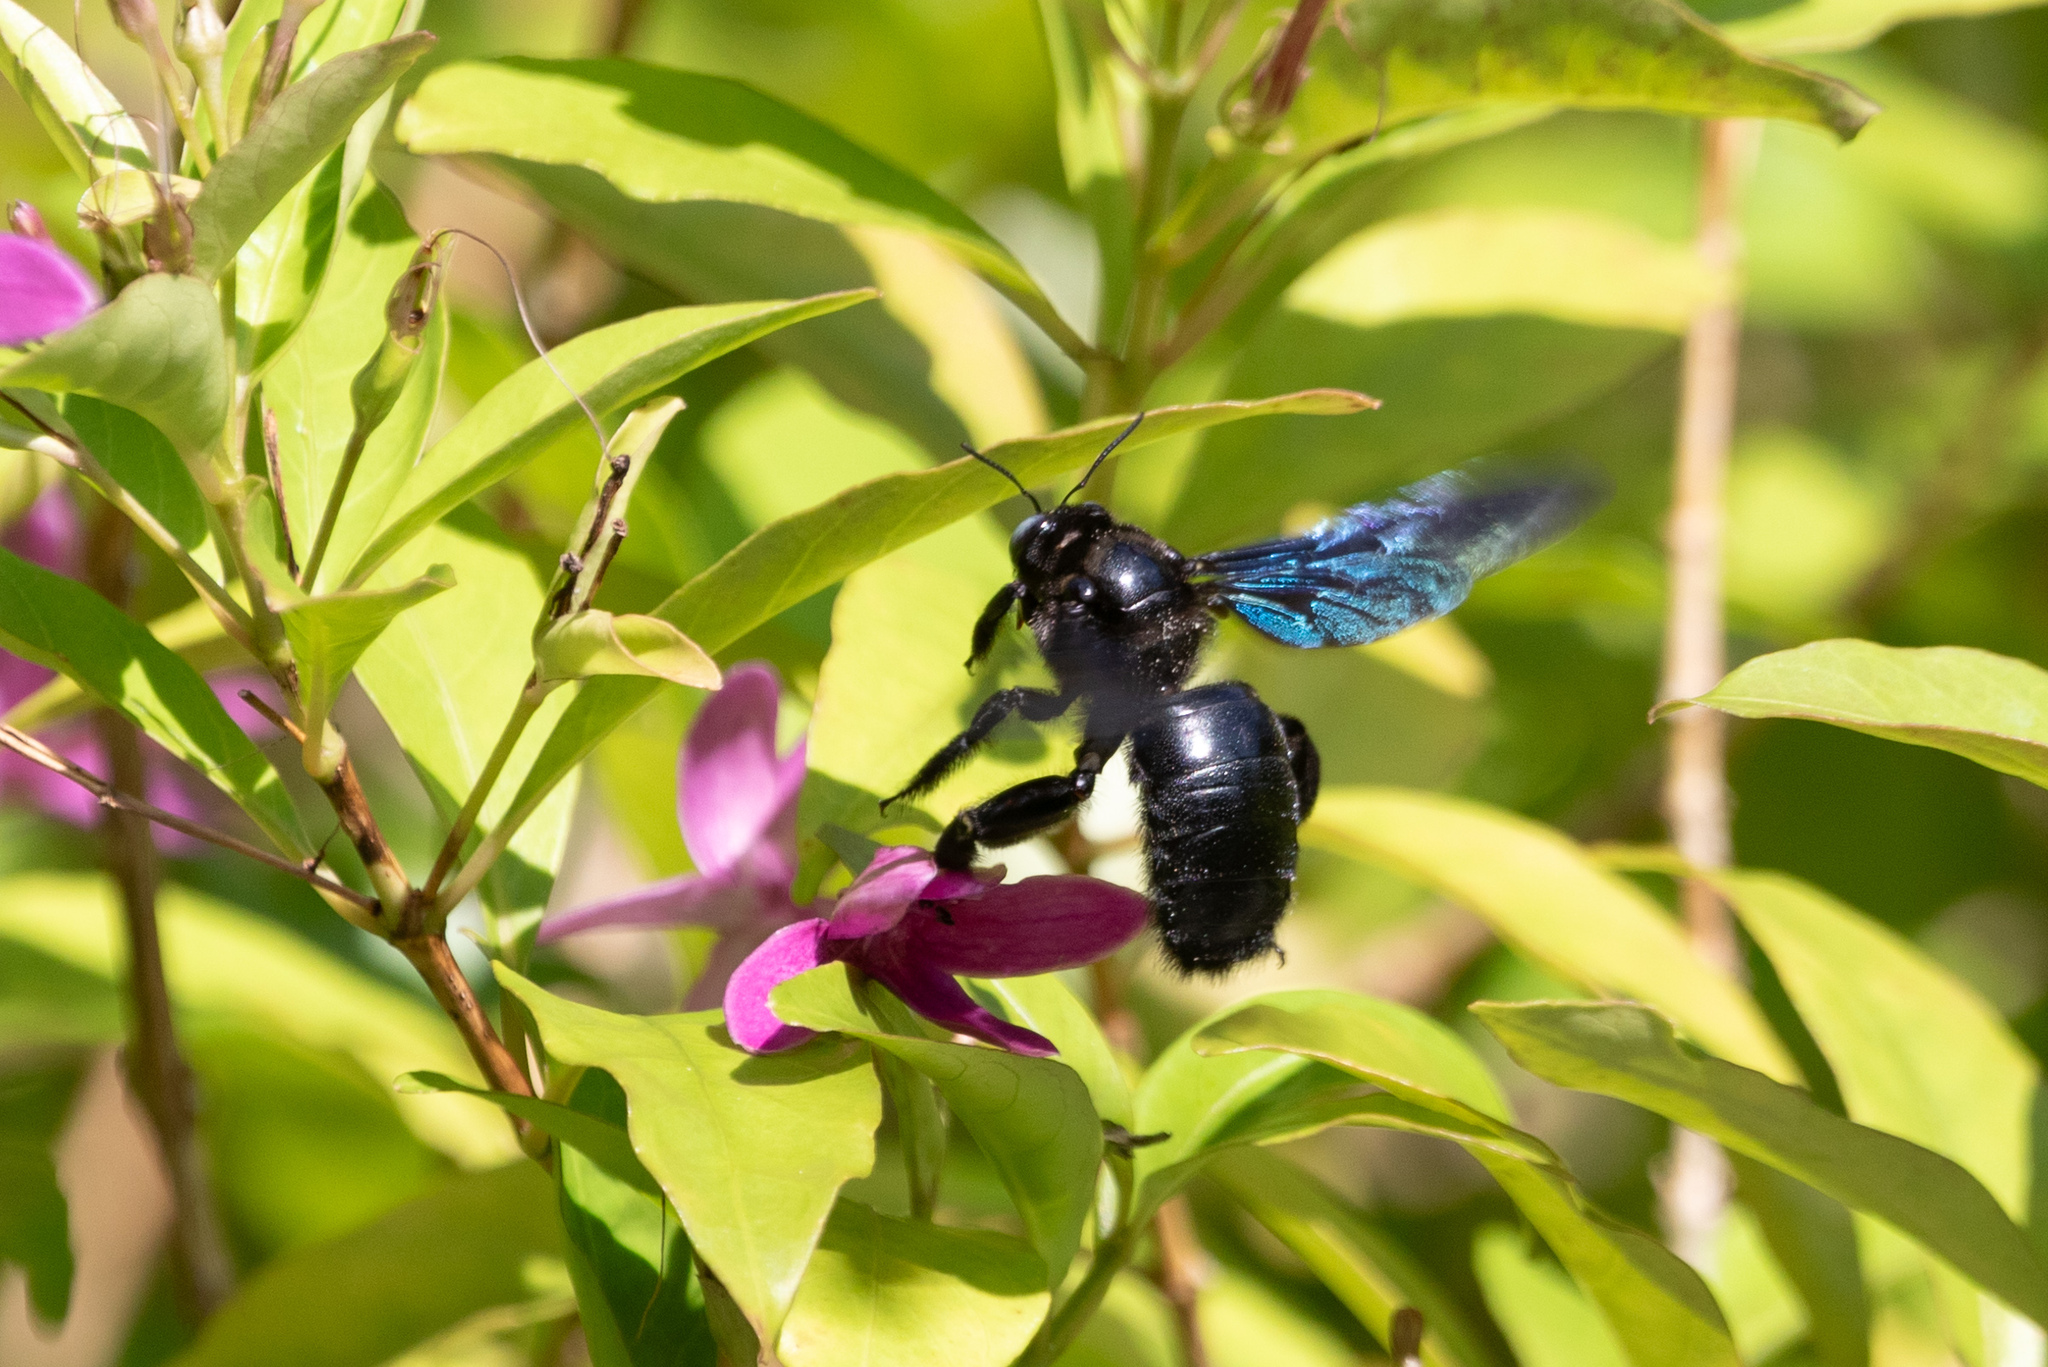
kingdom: Animalia
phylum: Arthropoda
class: Insecta
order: Hymenoptera
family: Apidae
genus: Xylocopa
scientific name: Xylocopa nasalis
